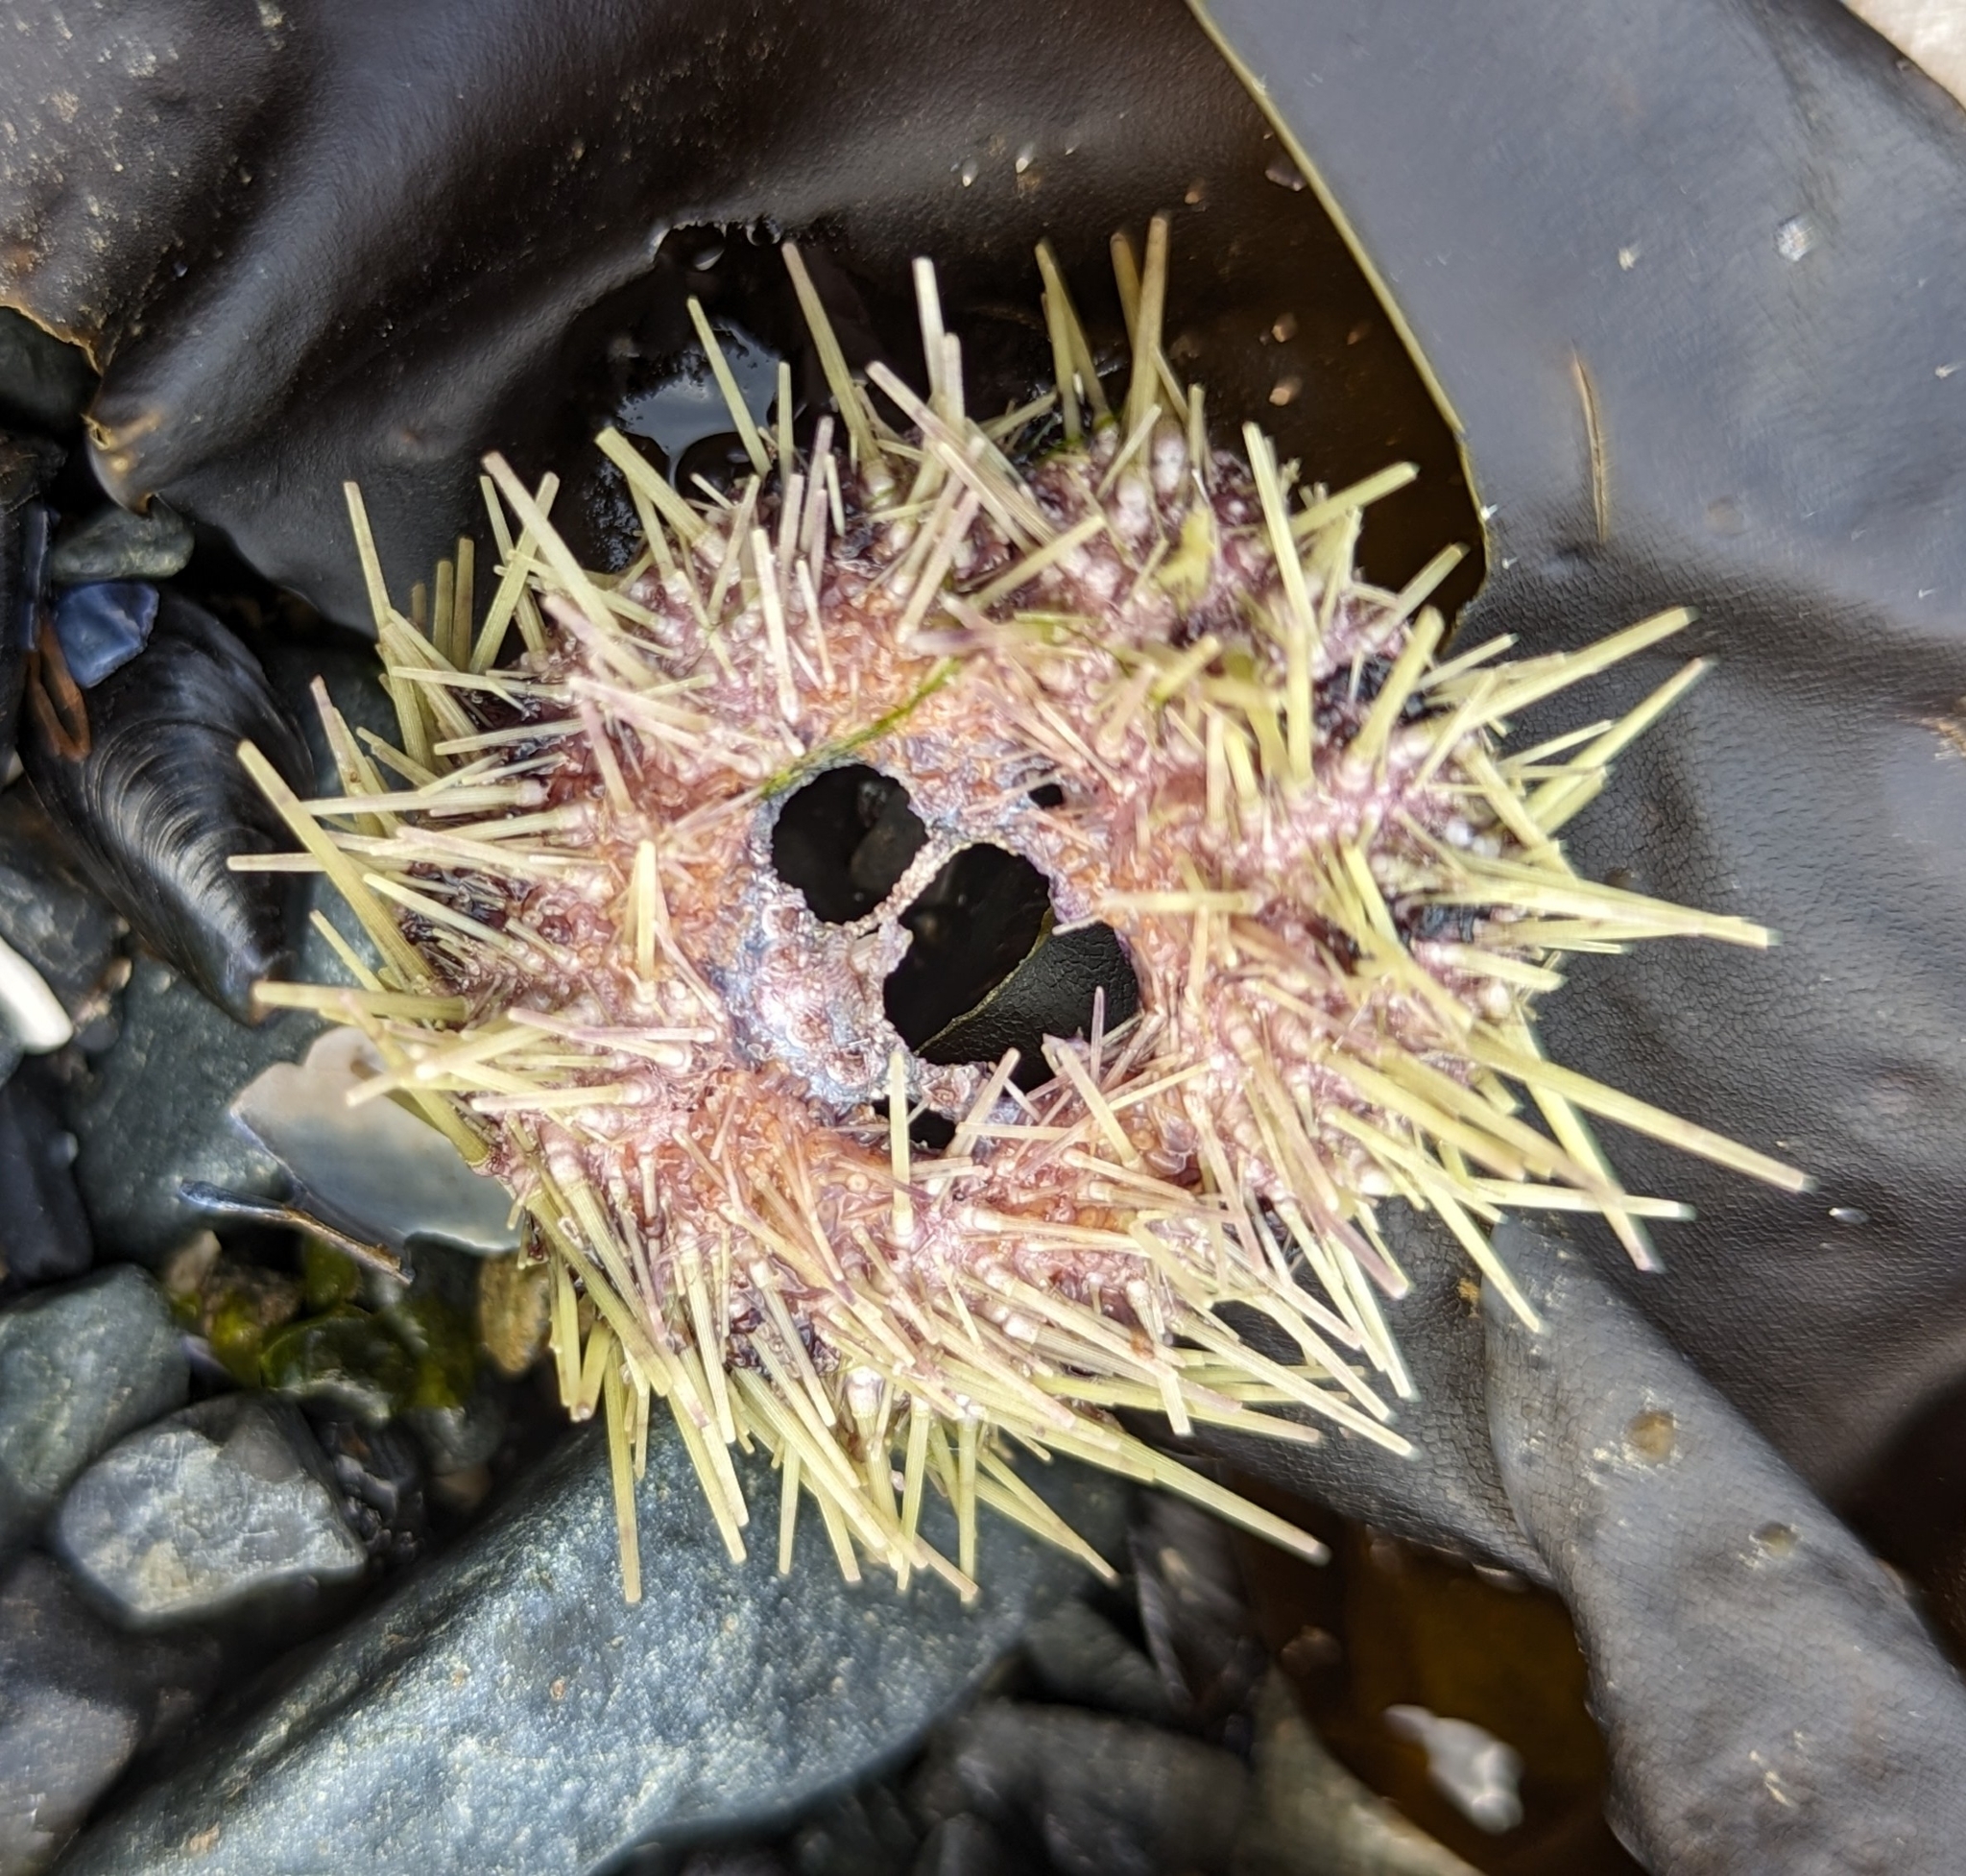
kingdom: Animalia
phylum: Echinodermata
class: Echinoidea
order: Camarodonta
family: Strongylocentrotidae
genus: Strongylocentrotus
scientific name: Strongylocentrotus droebachiensis
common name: Northern sea urchin
